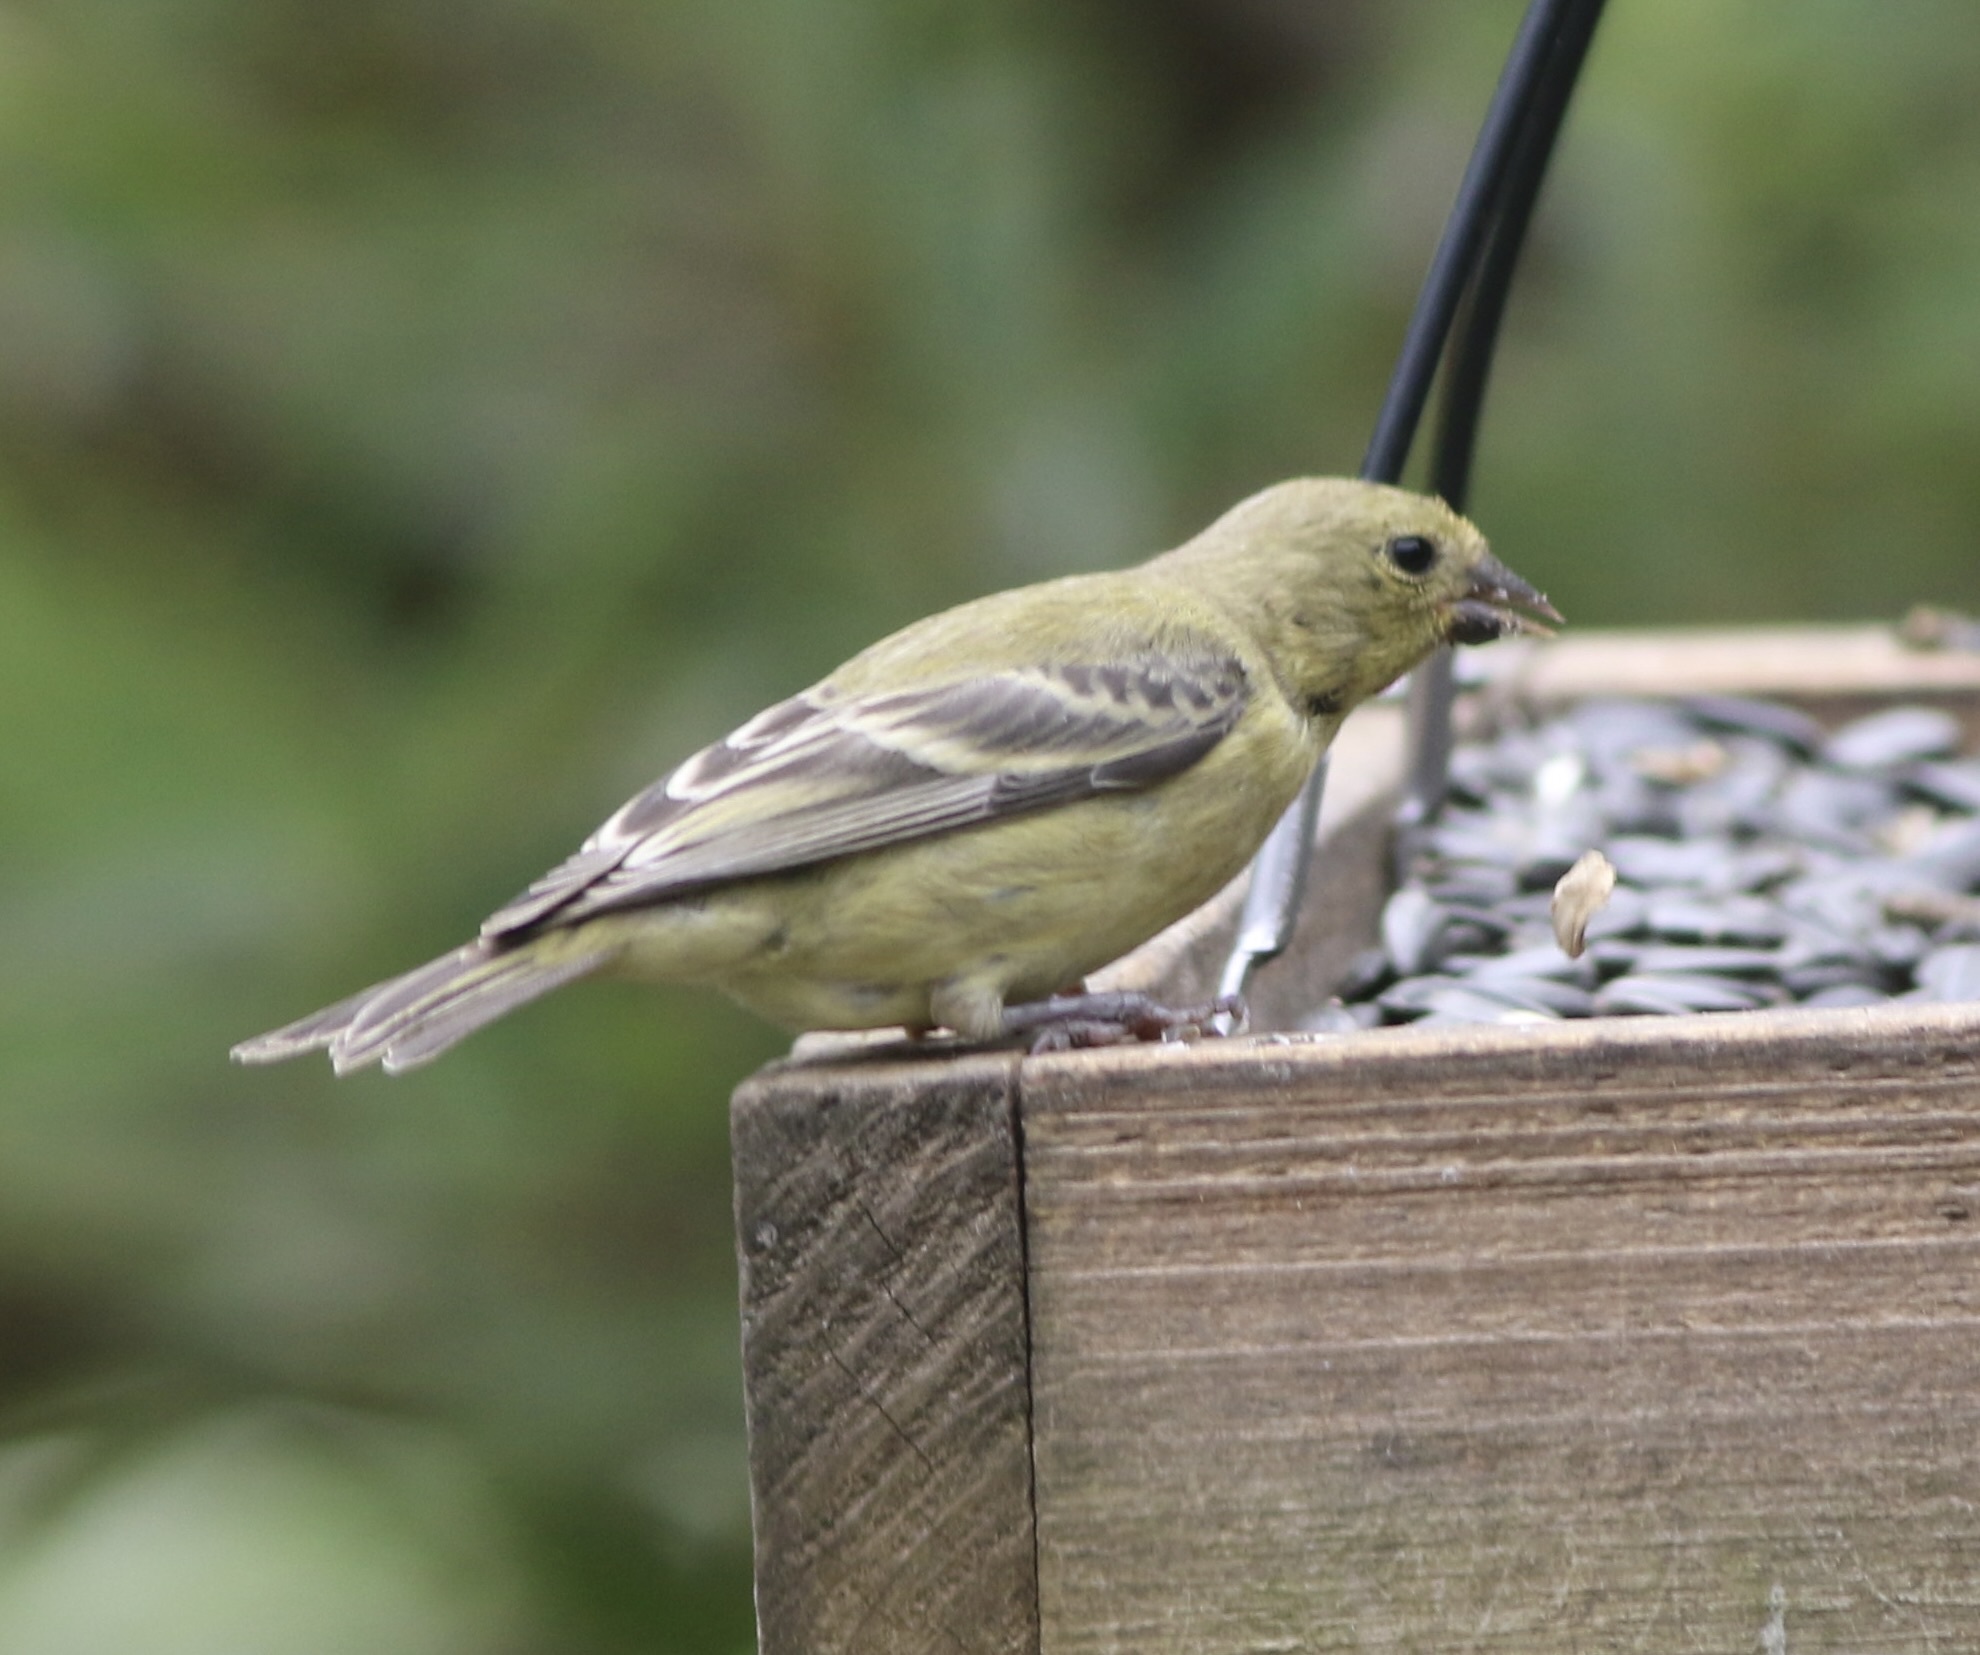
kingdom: Animalia
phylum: Chordata
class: Aves
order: Passeriformes
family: Fringillidae
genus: Spinus
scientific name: Spinus psaltria
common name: Lesser goldfinch
